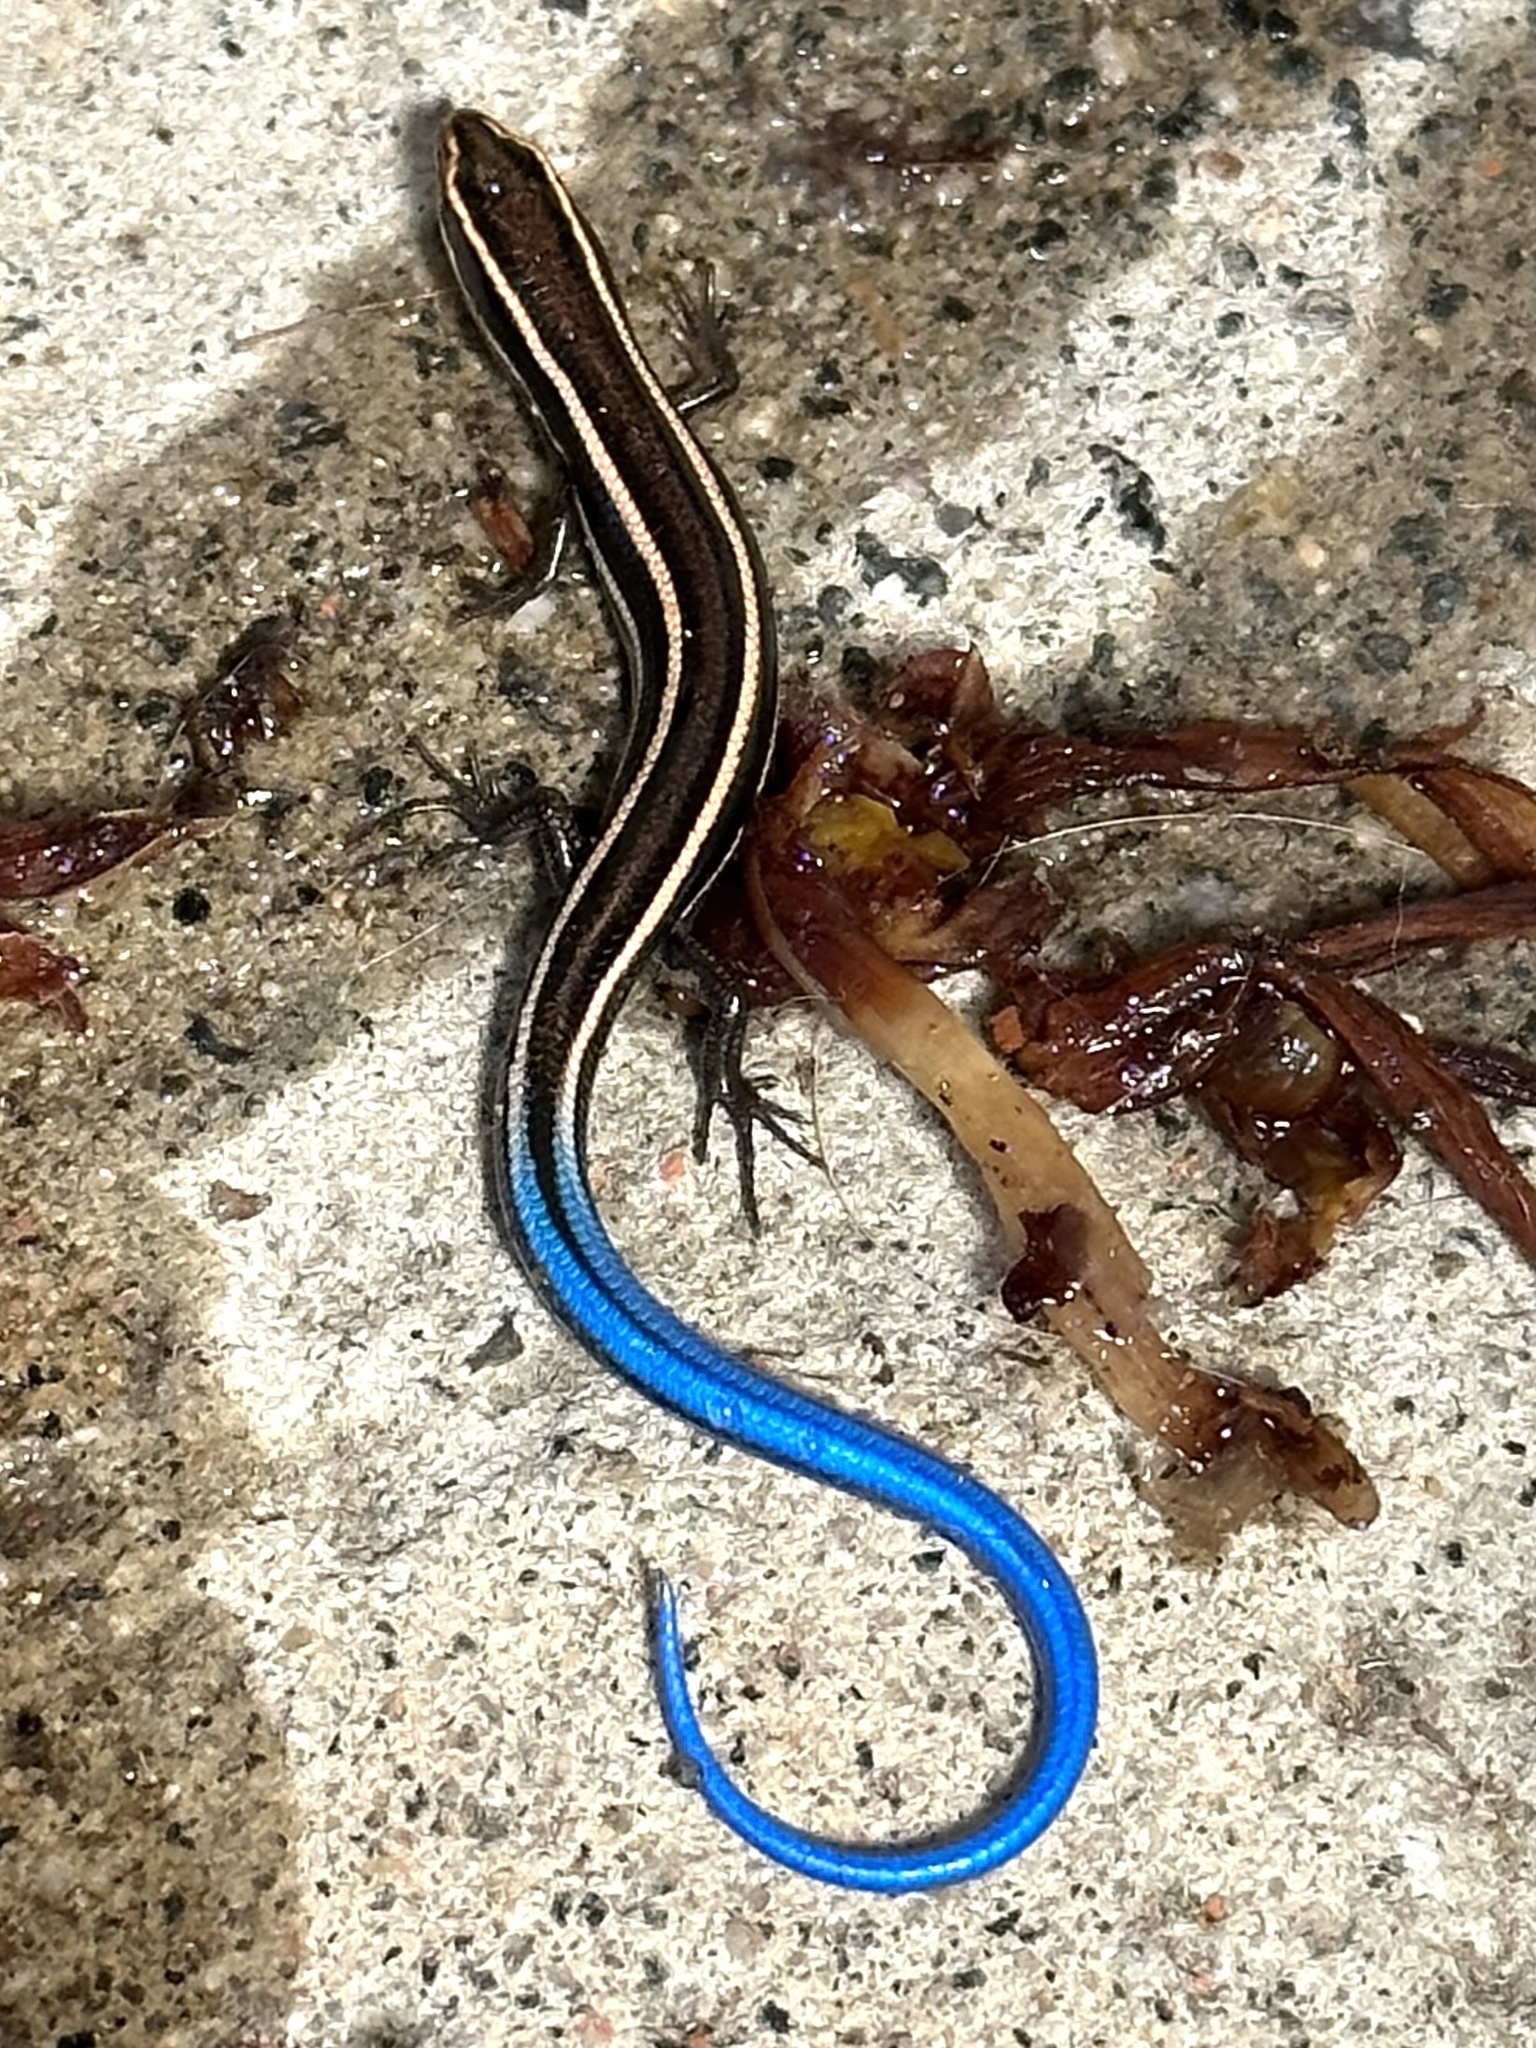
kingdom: Animalia
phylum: Chordata
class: Squamata
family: Scincidae
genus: Plestiodon
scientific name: Plestiodon skiltonianus
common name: Coronado island skink [interparietalis]
